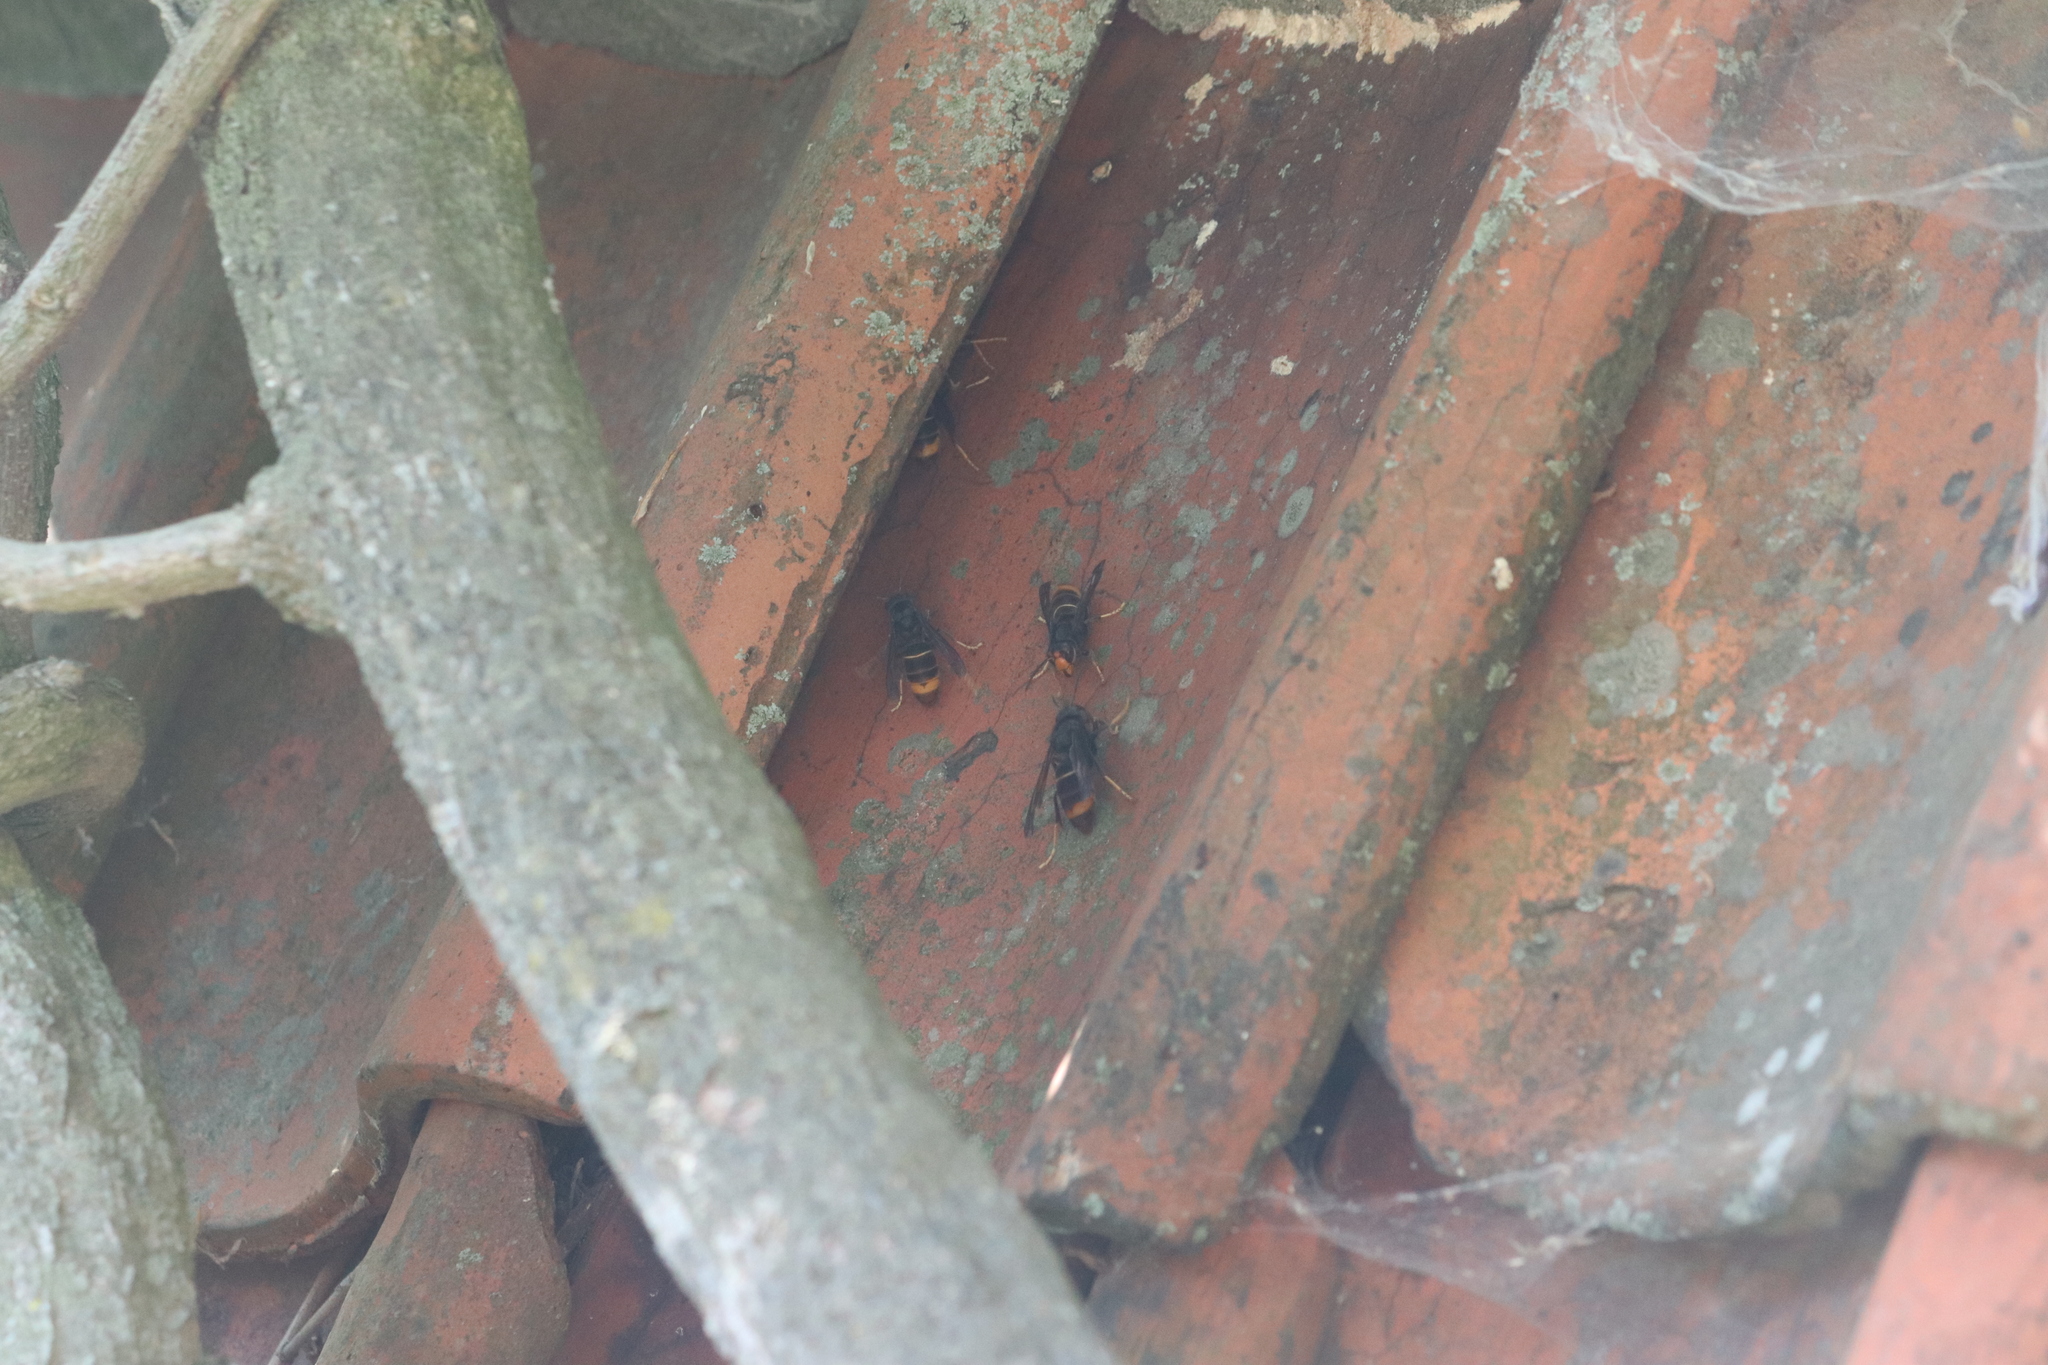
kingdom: Animalia
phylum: Arthropoda
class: Insecta
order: Hymenoptera
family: Vespidae
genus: Vespa
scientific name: Vespa velutina
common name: Asian hornet
